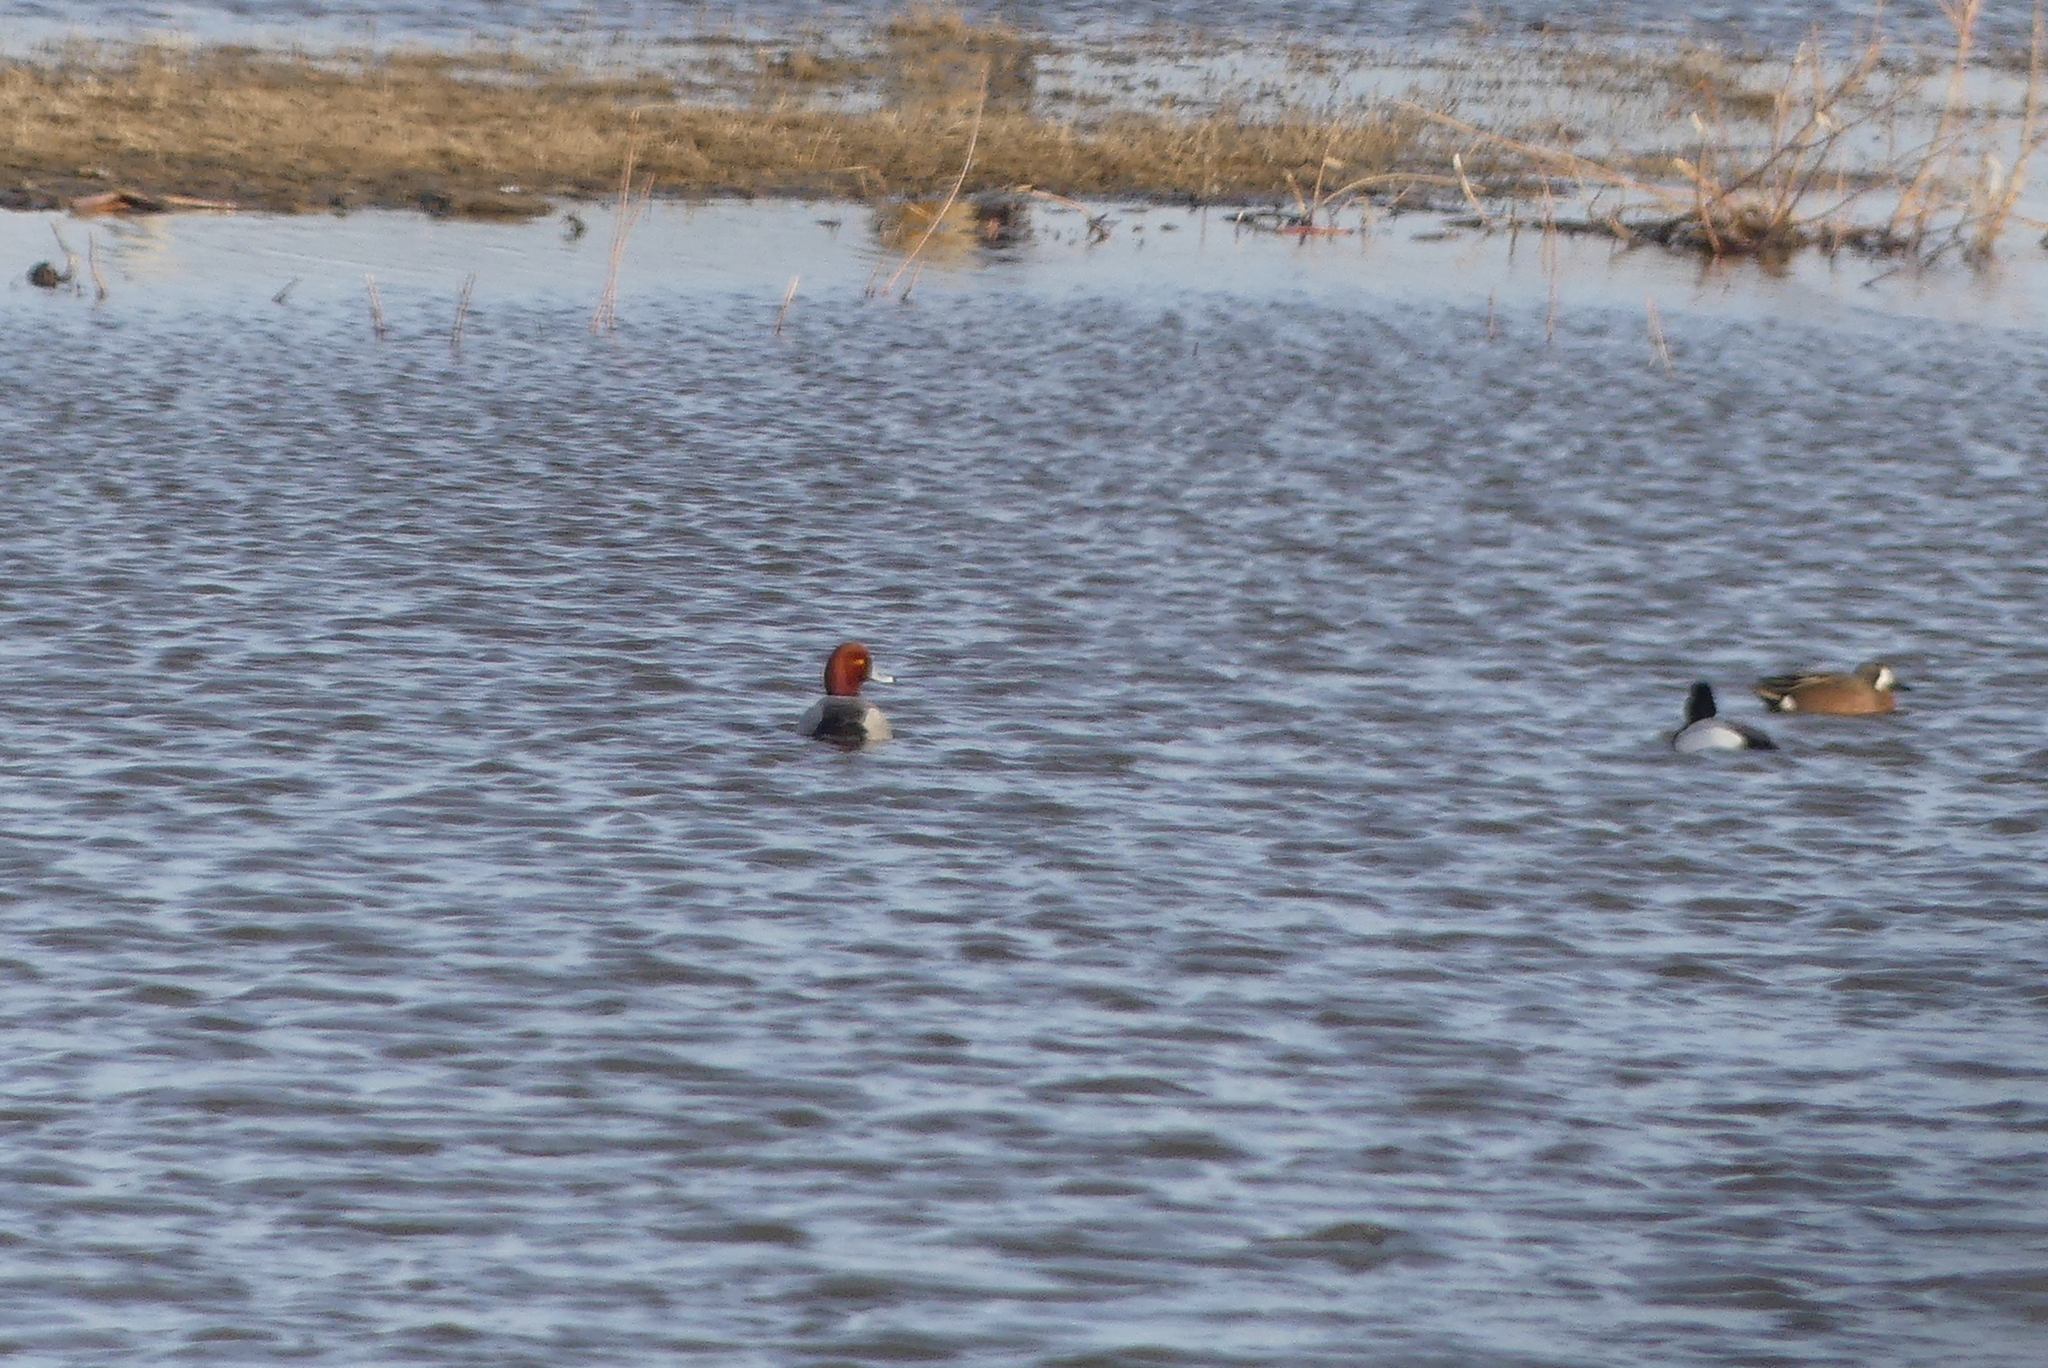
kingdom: Animalia
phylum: Chordata
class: Aves
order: Anseriformes
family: Anatidae
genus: Aythya
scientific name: Aythya americana
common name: Redhead
